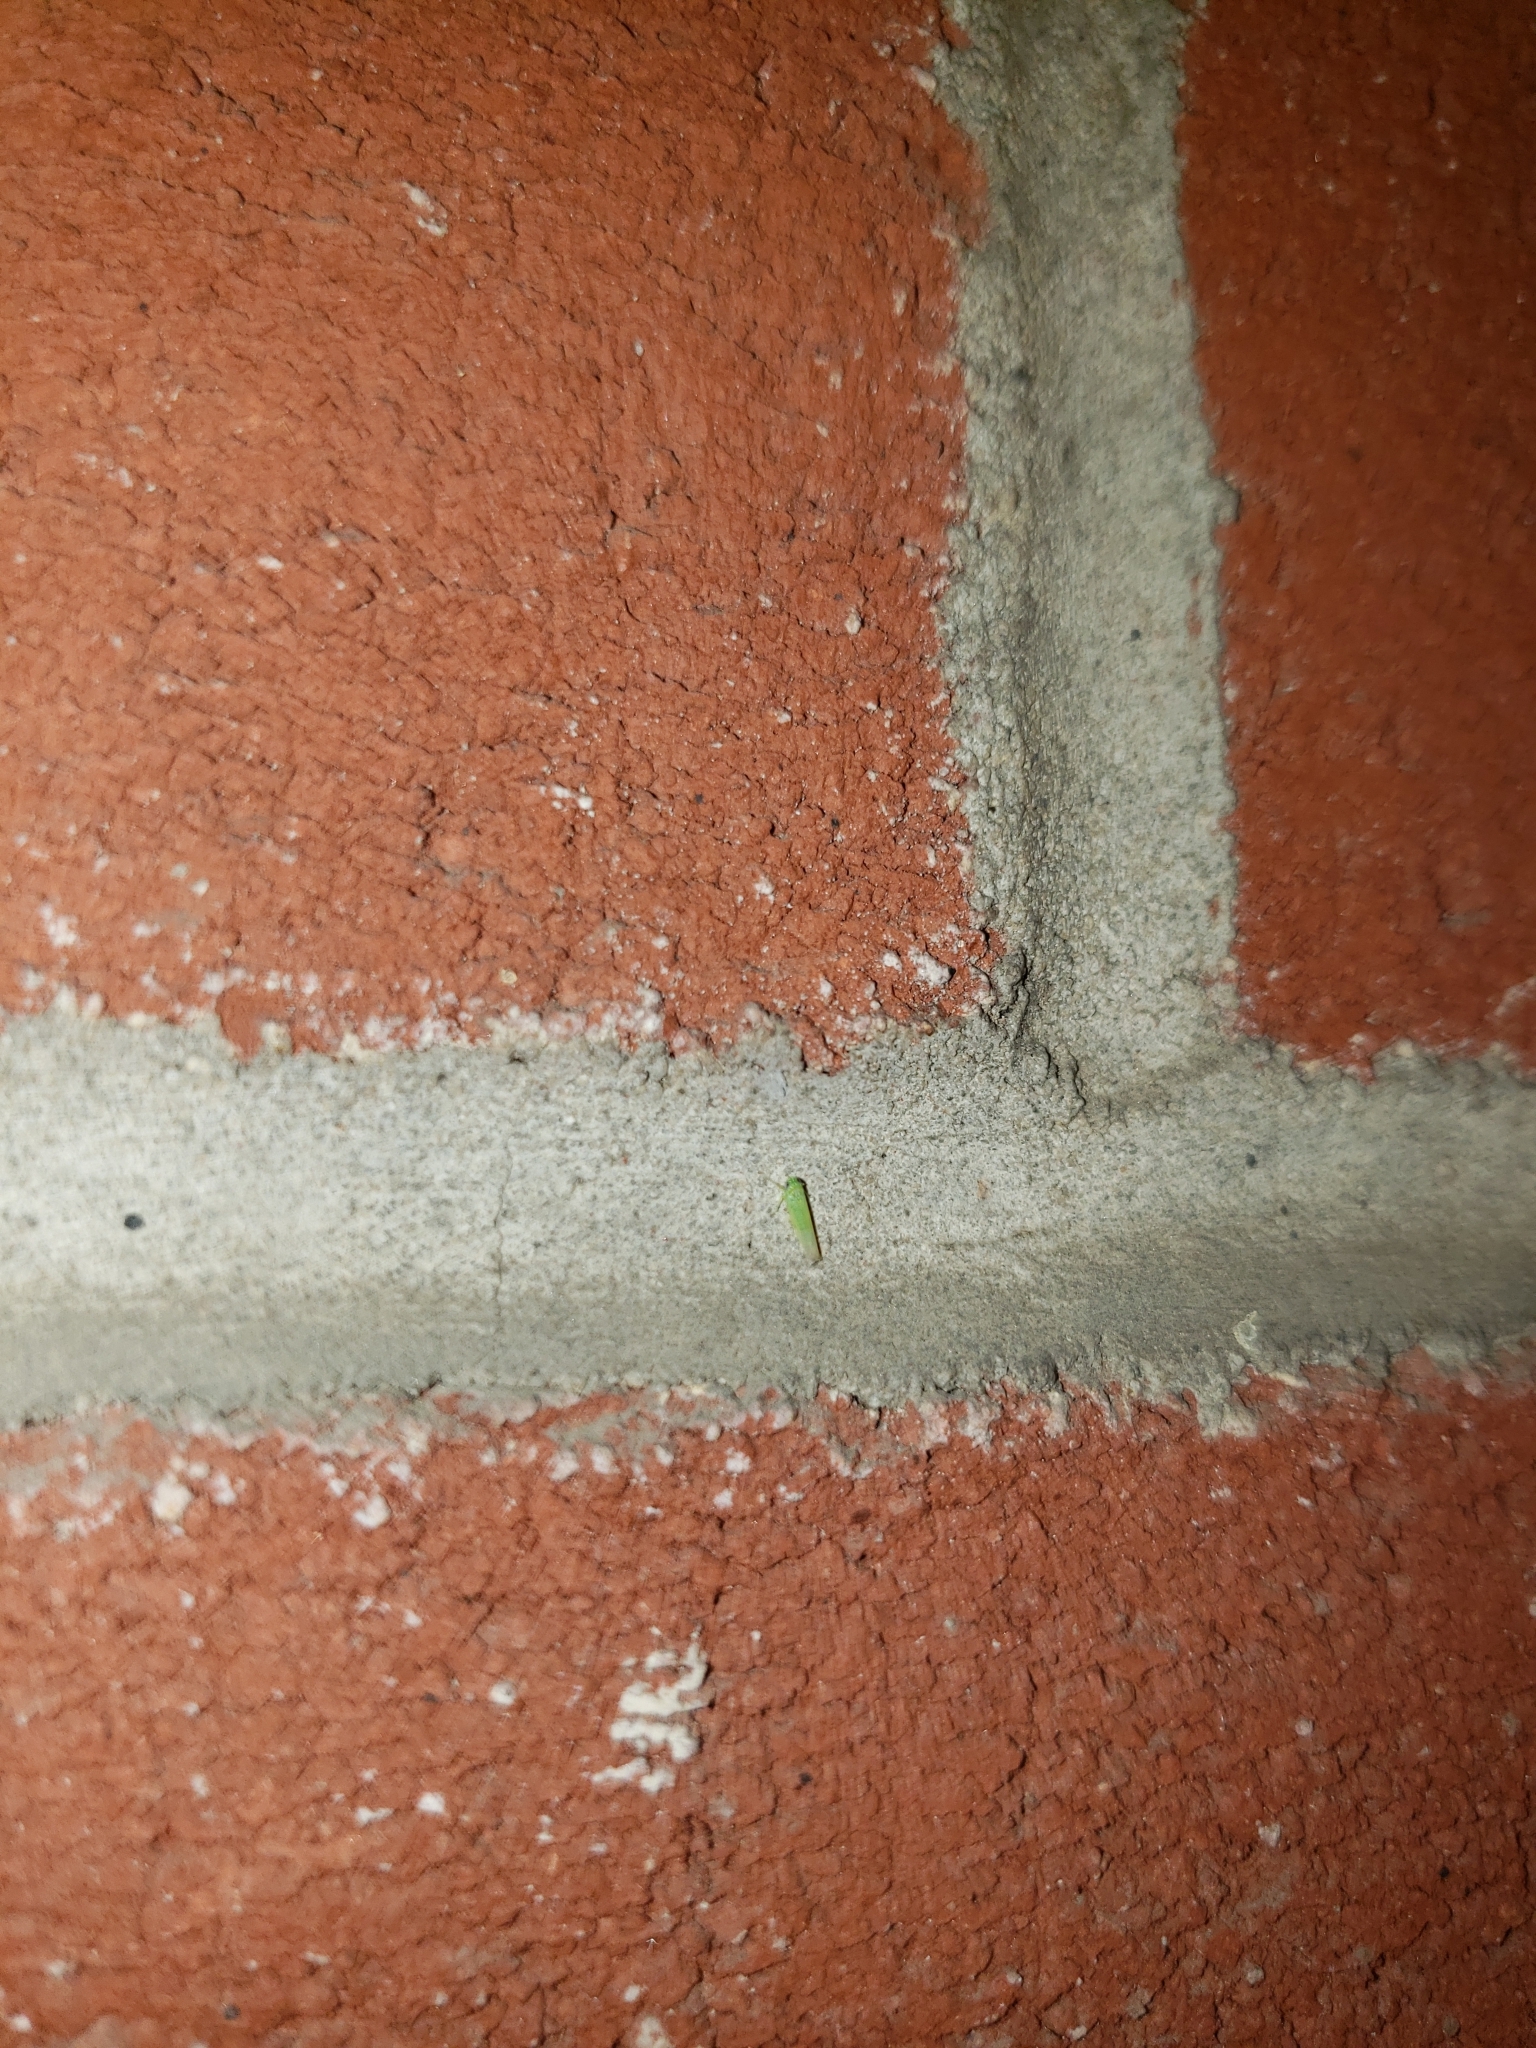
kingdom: Animalia
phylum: Arthropoda
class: Insecta
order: Hemiptera
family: Cicadellidae
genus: Empoasca
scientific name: Empoasca fabae
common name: Potato leafhopper
